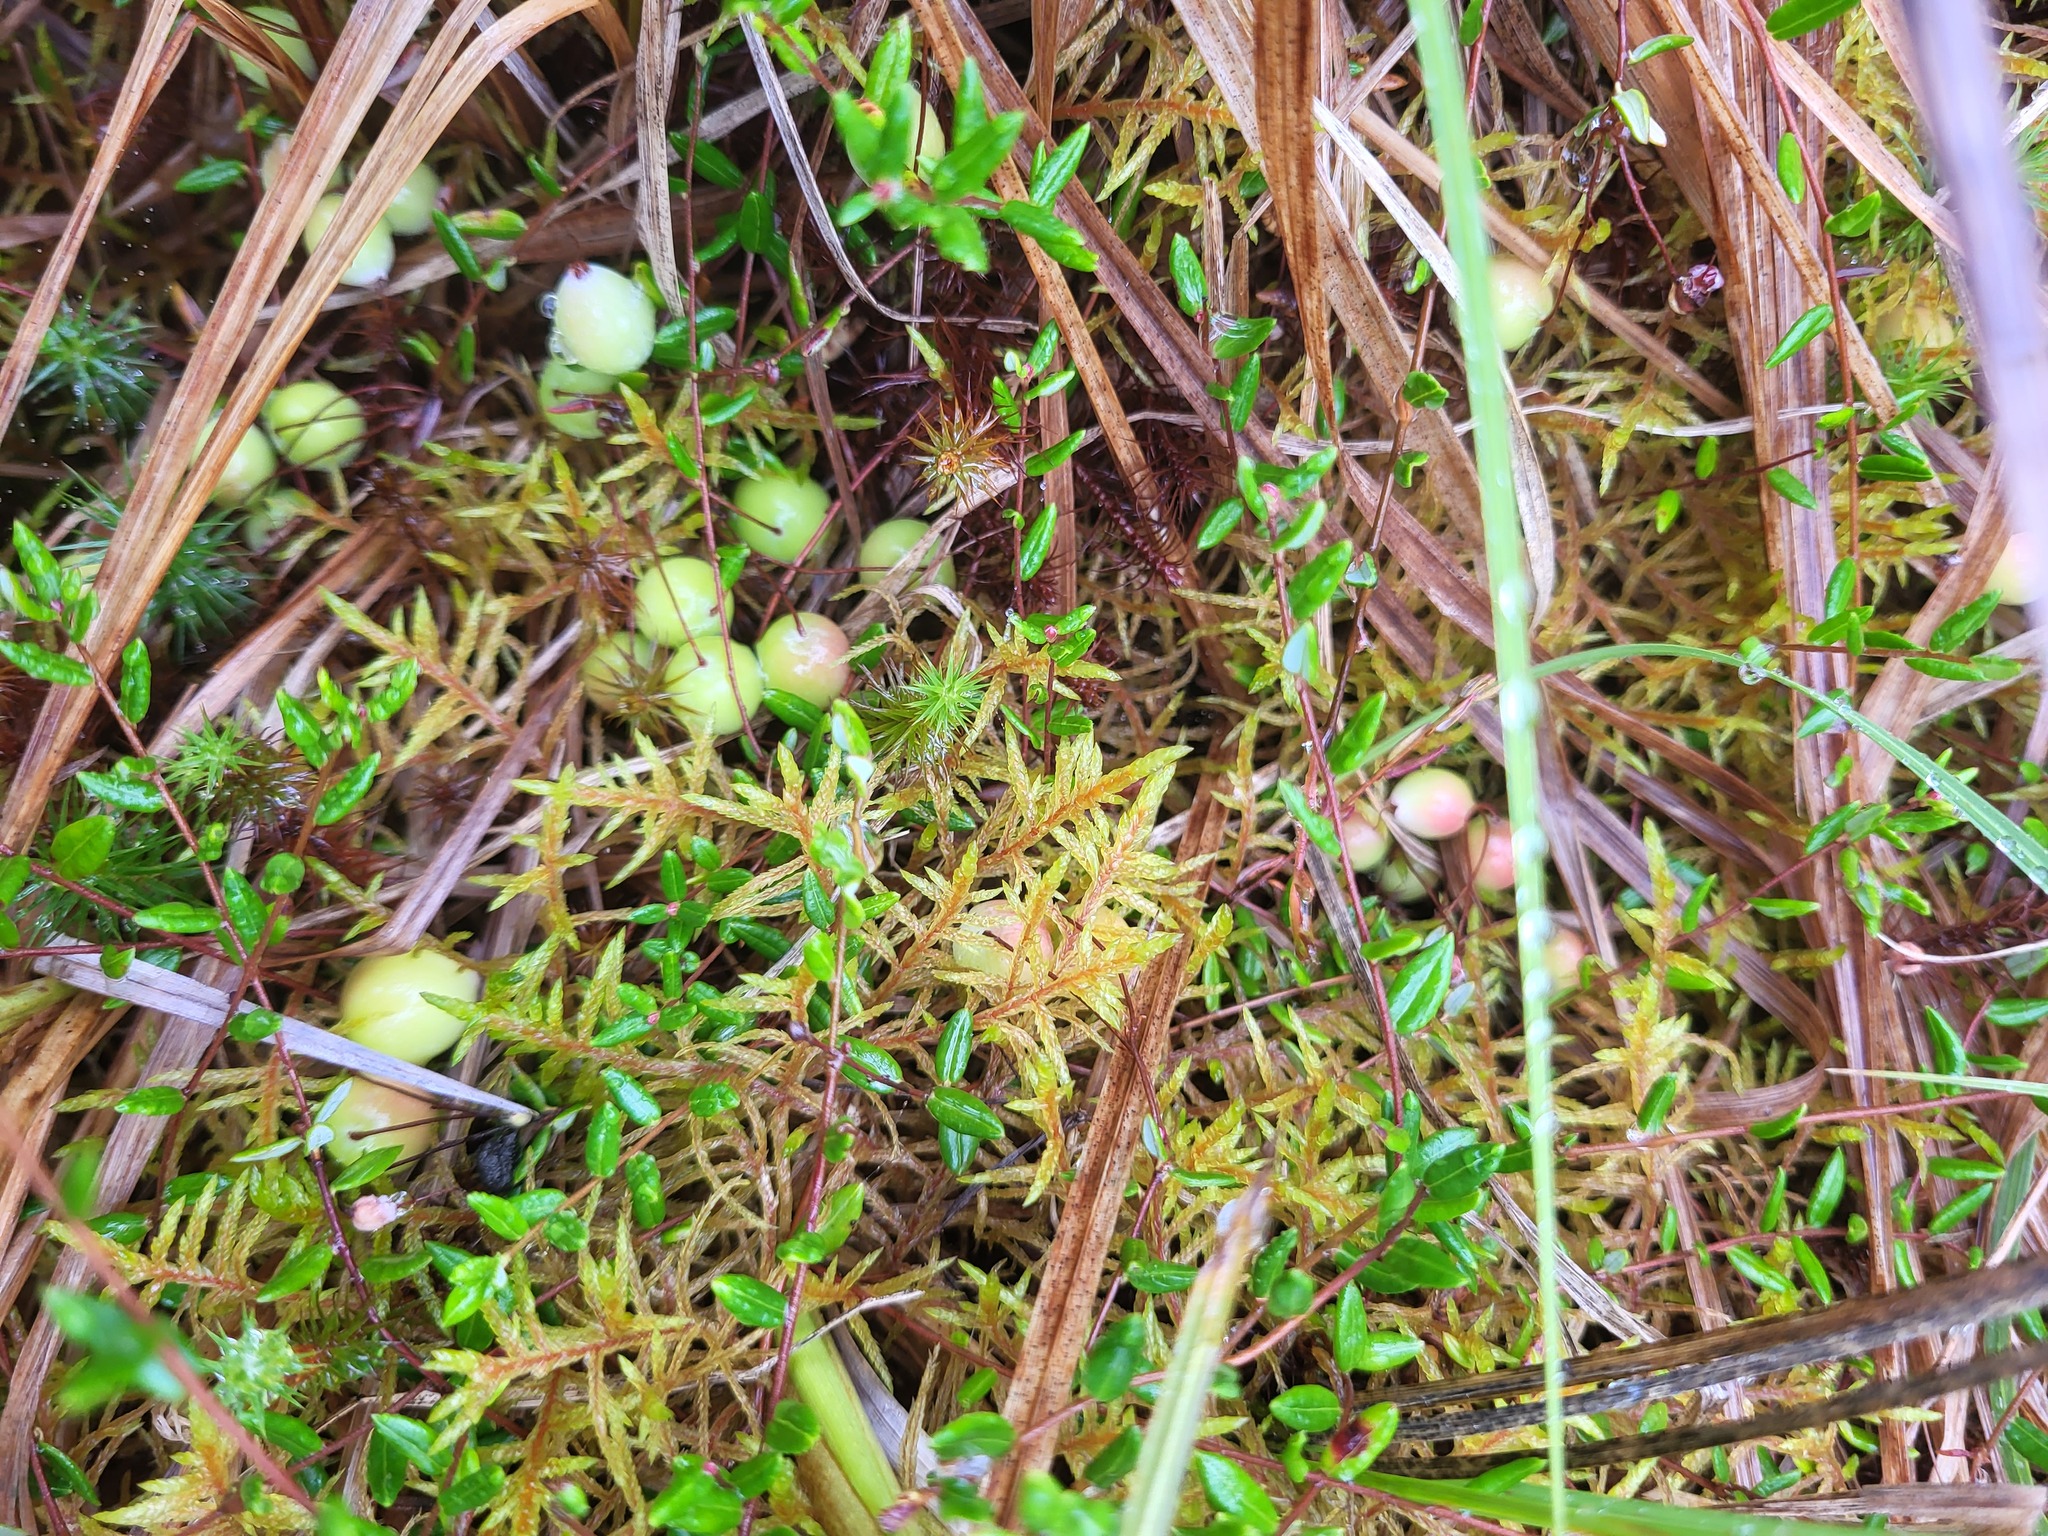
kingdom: Plantae
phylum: Tracheophyta
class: Magnoliopsida
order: Ericales
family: Ericaceae
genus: Vaccinium
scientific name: Vaccinium oxycoccos
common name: Cranberry
